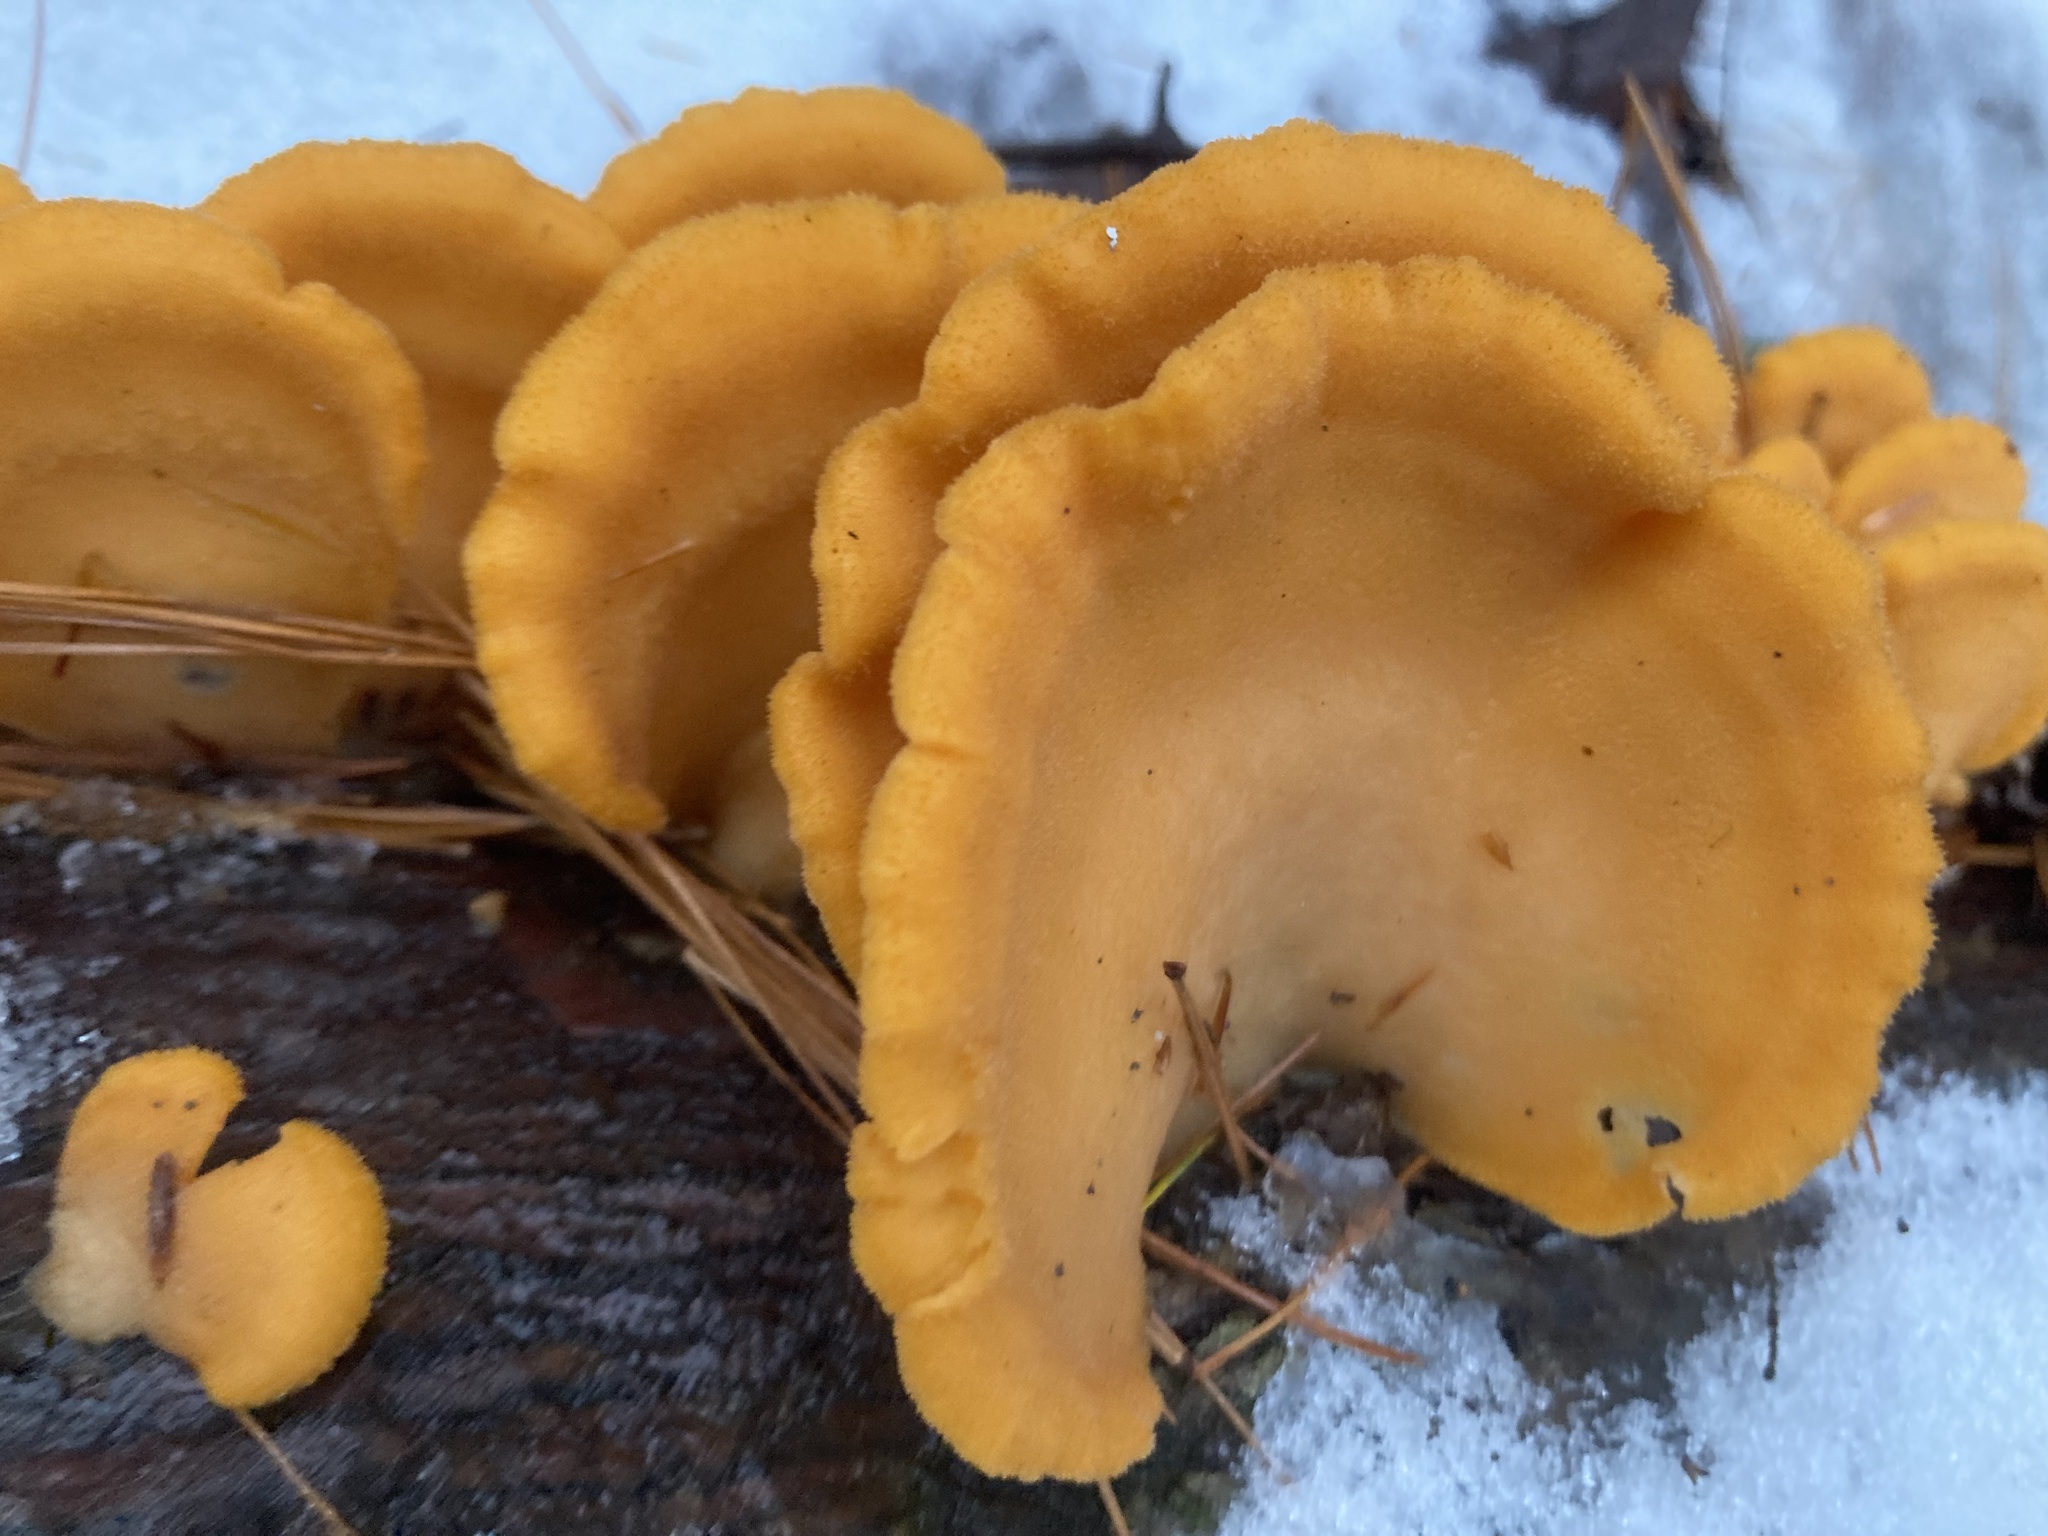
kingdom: Fungi
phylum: Basidiomycota
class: Agaricomycetes
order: Agaricales
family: Phyllotopsidaceae
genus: Phyllotopsis
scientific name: Phyllotopsis nidulans
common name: Orange mock oyster
